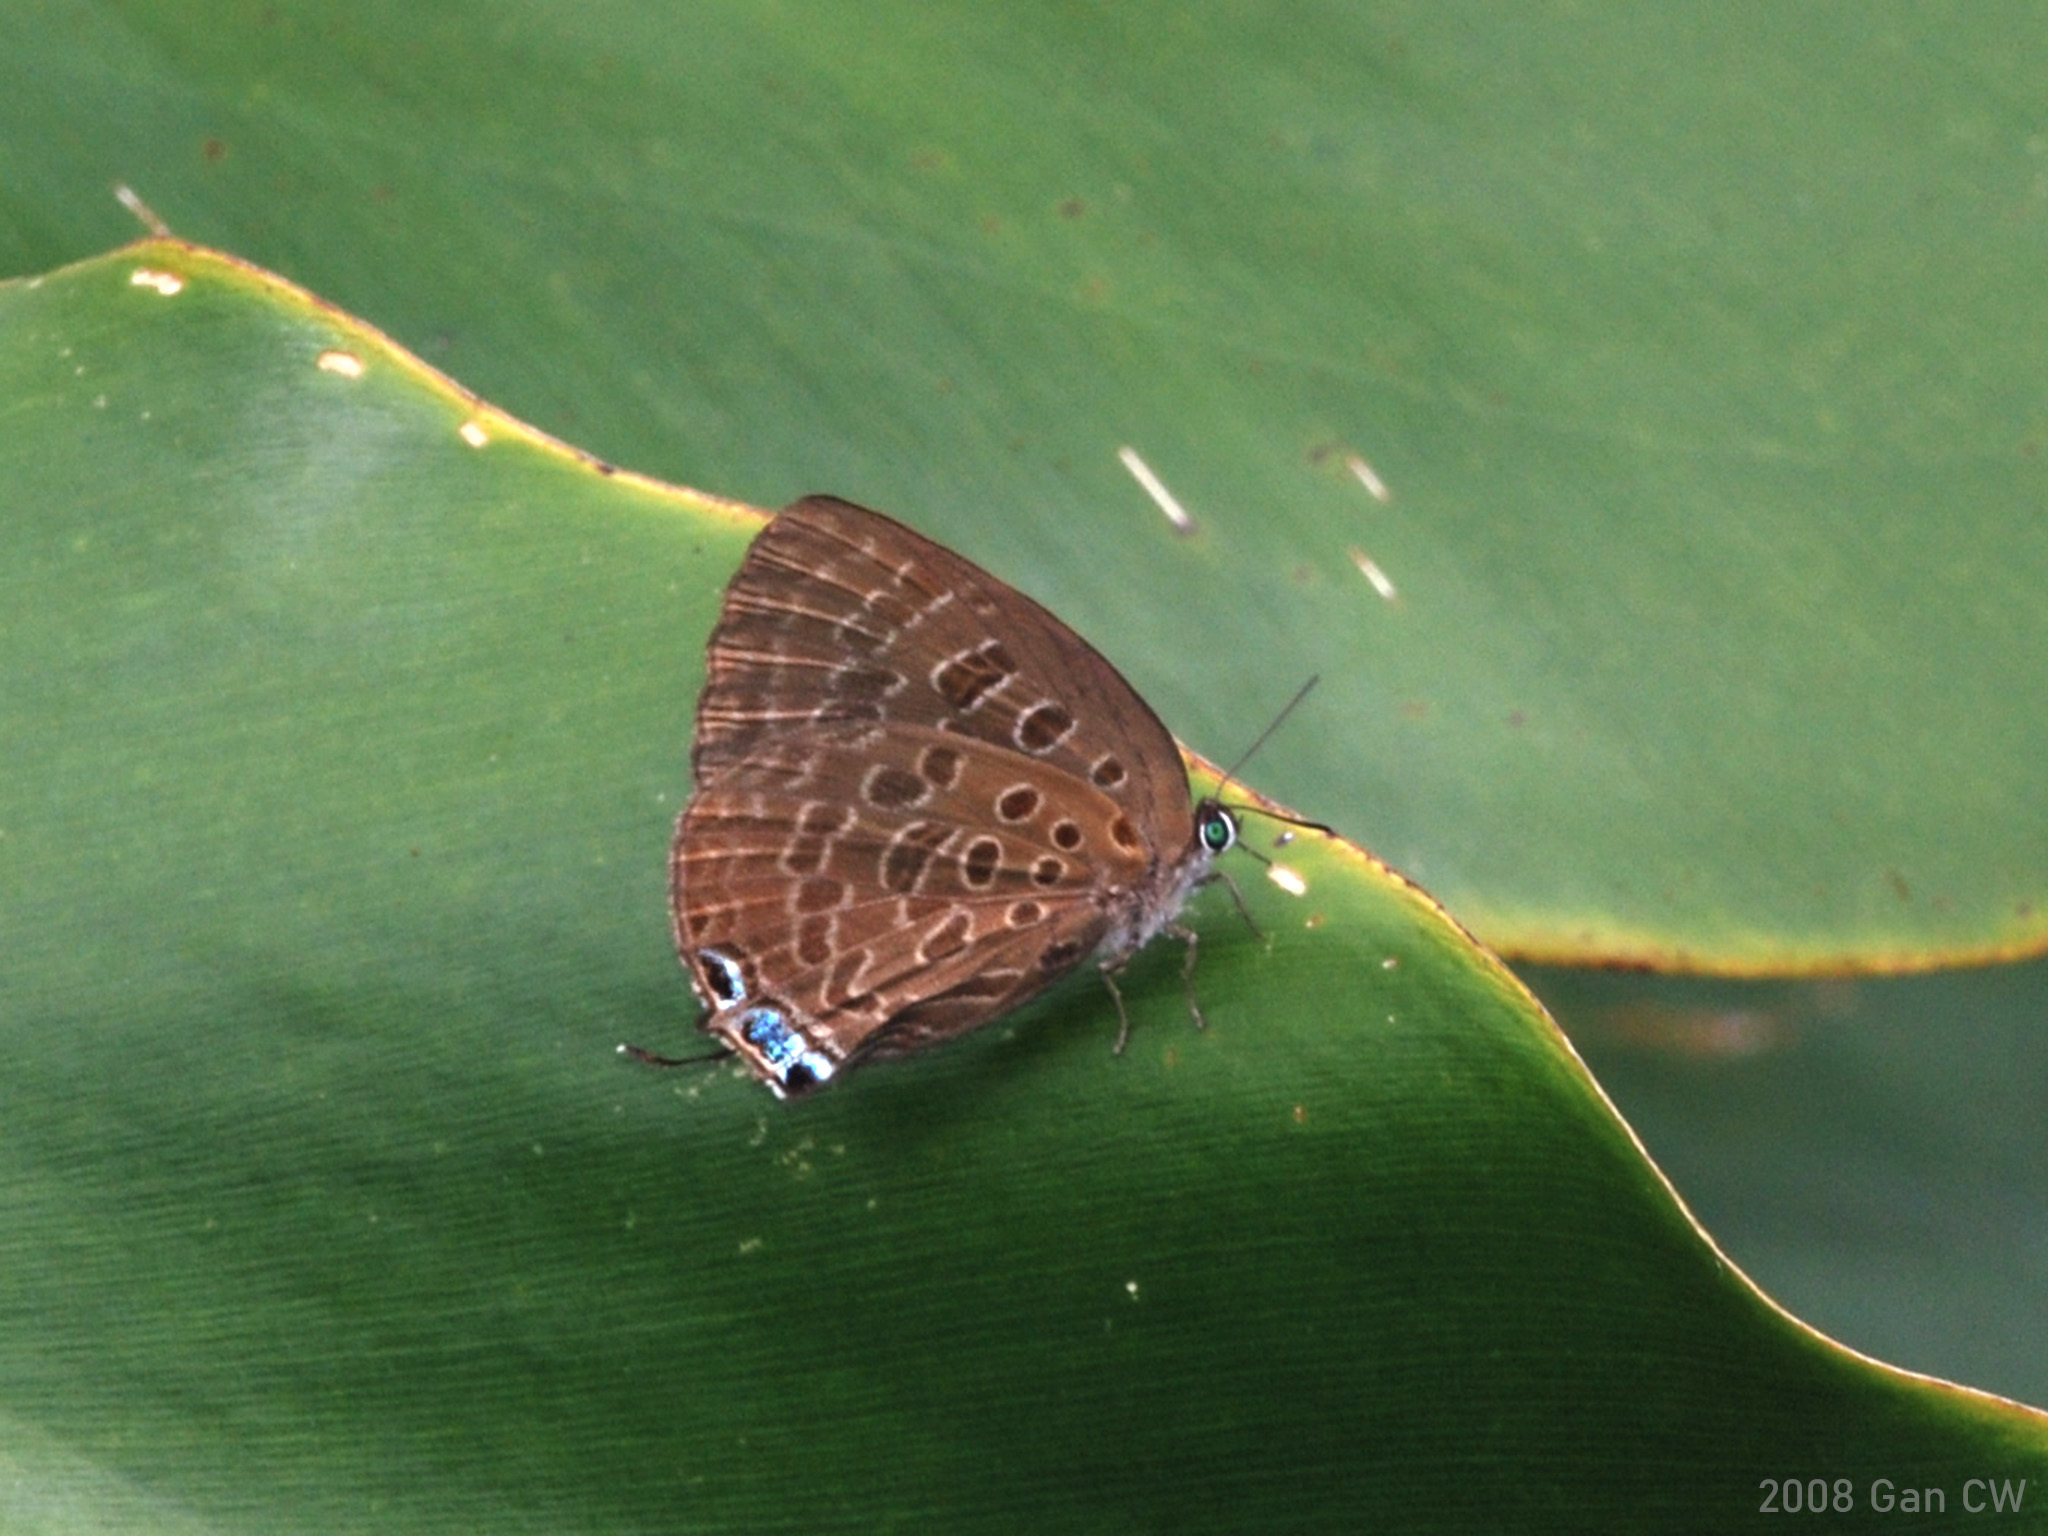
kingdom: Animalia
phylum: Arthropoda
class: Insecta
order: Lepidoptera
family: Lycaenidae
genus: Arhopala
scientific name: Arhopala opalina
